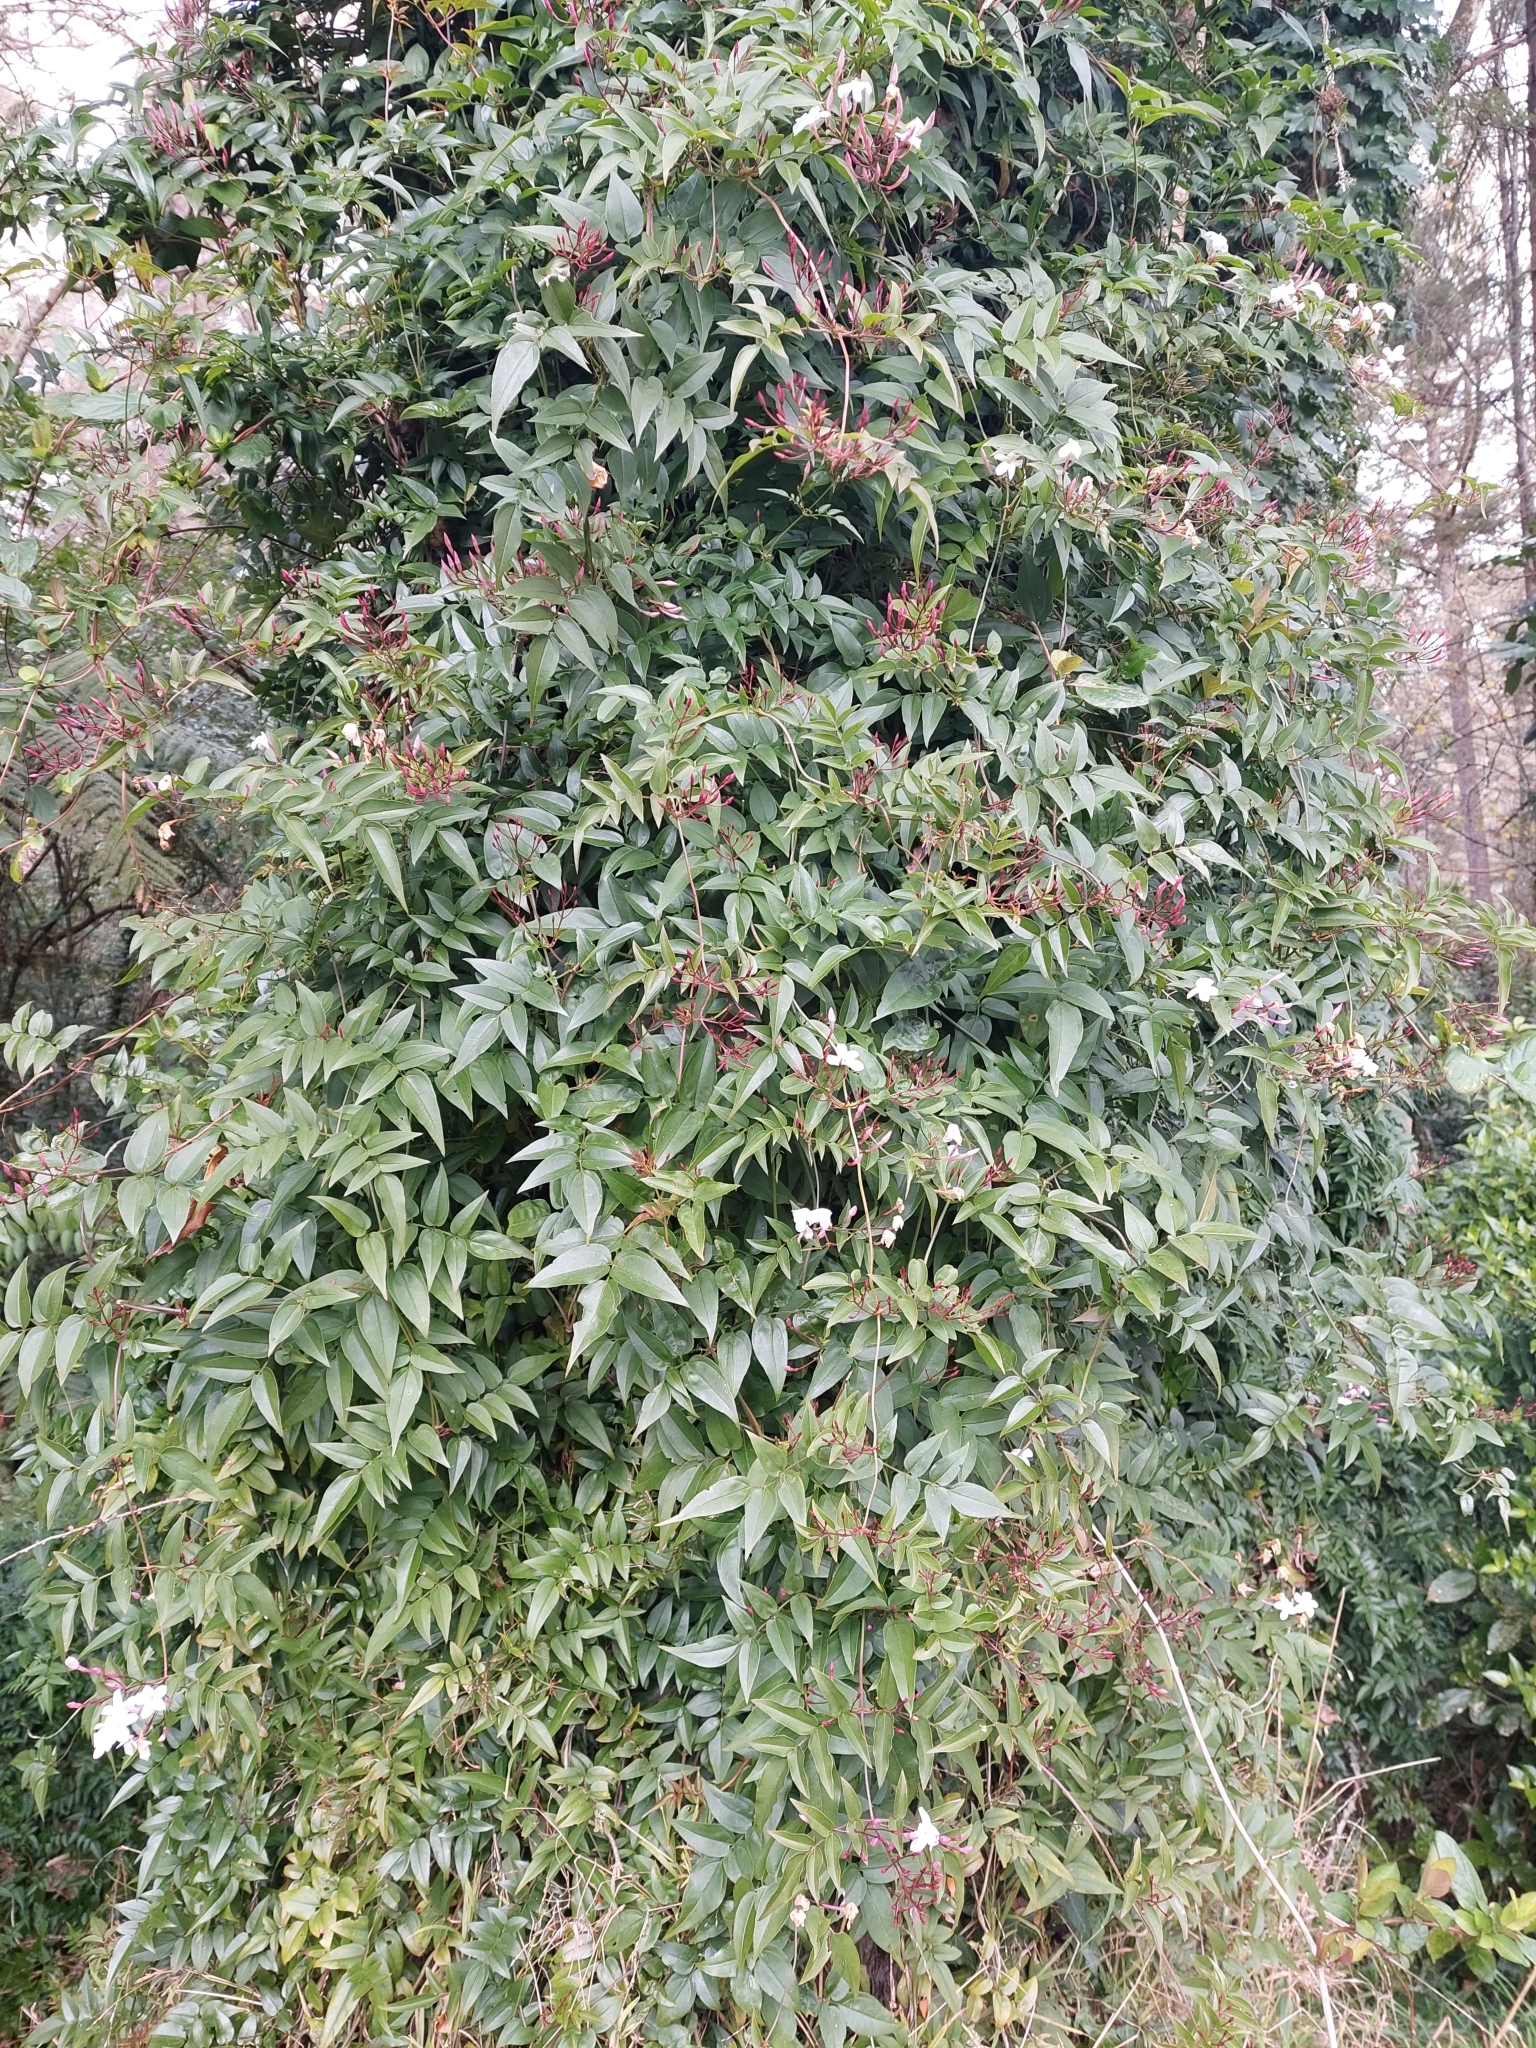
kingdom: Plantae
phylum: Tracheophyta
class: Magnoliopsida
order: Lamiales
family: Oleaceae
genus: Jasminum
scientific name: Jasminum polyanthum
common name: Pink jasmine
